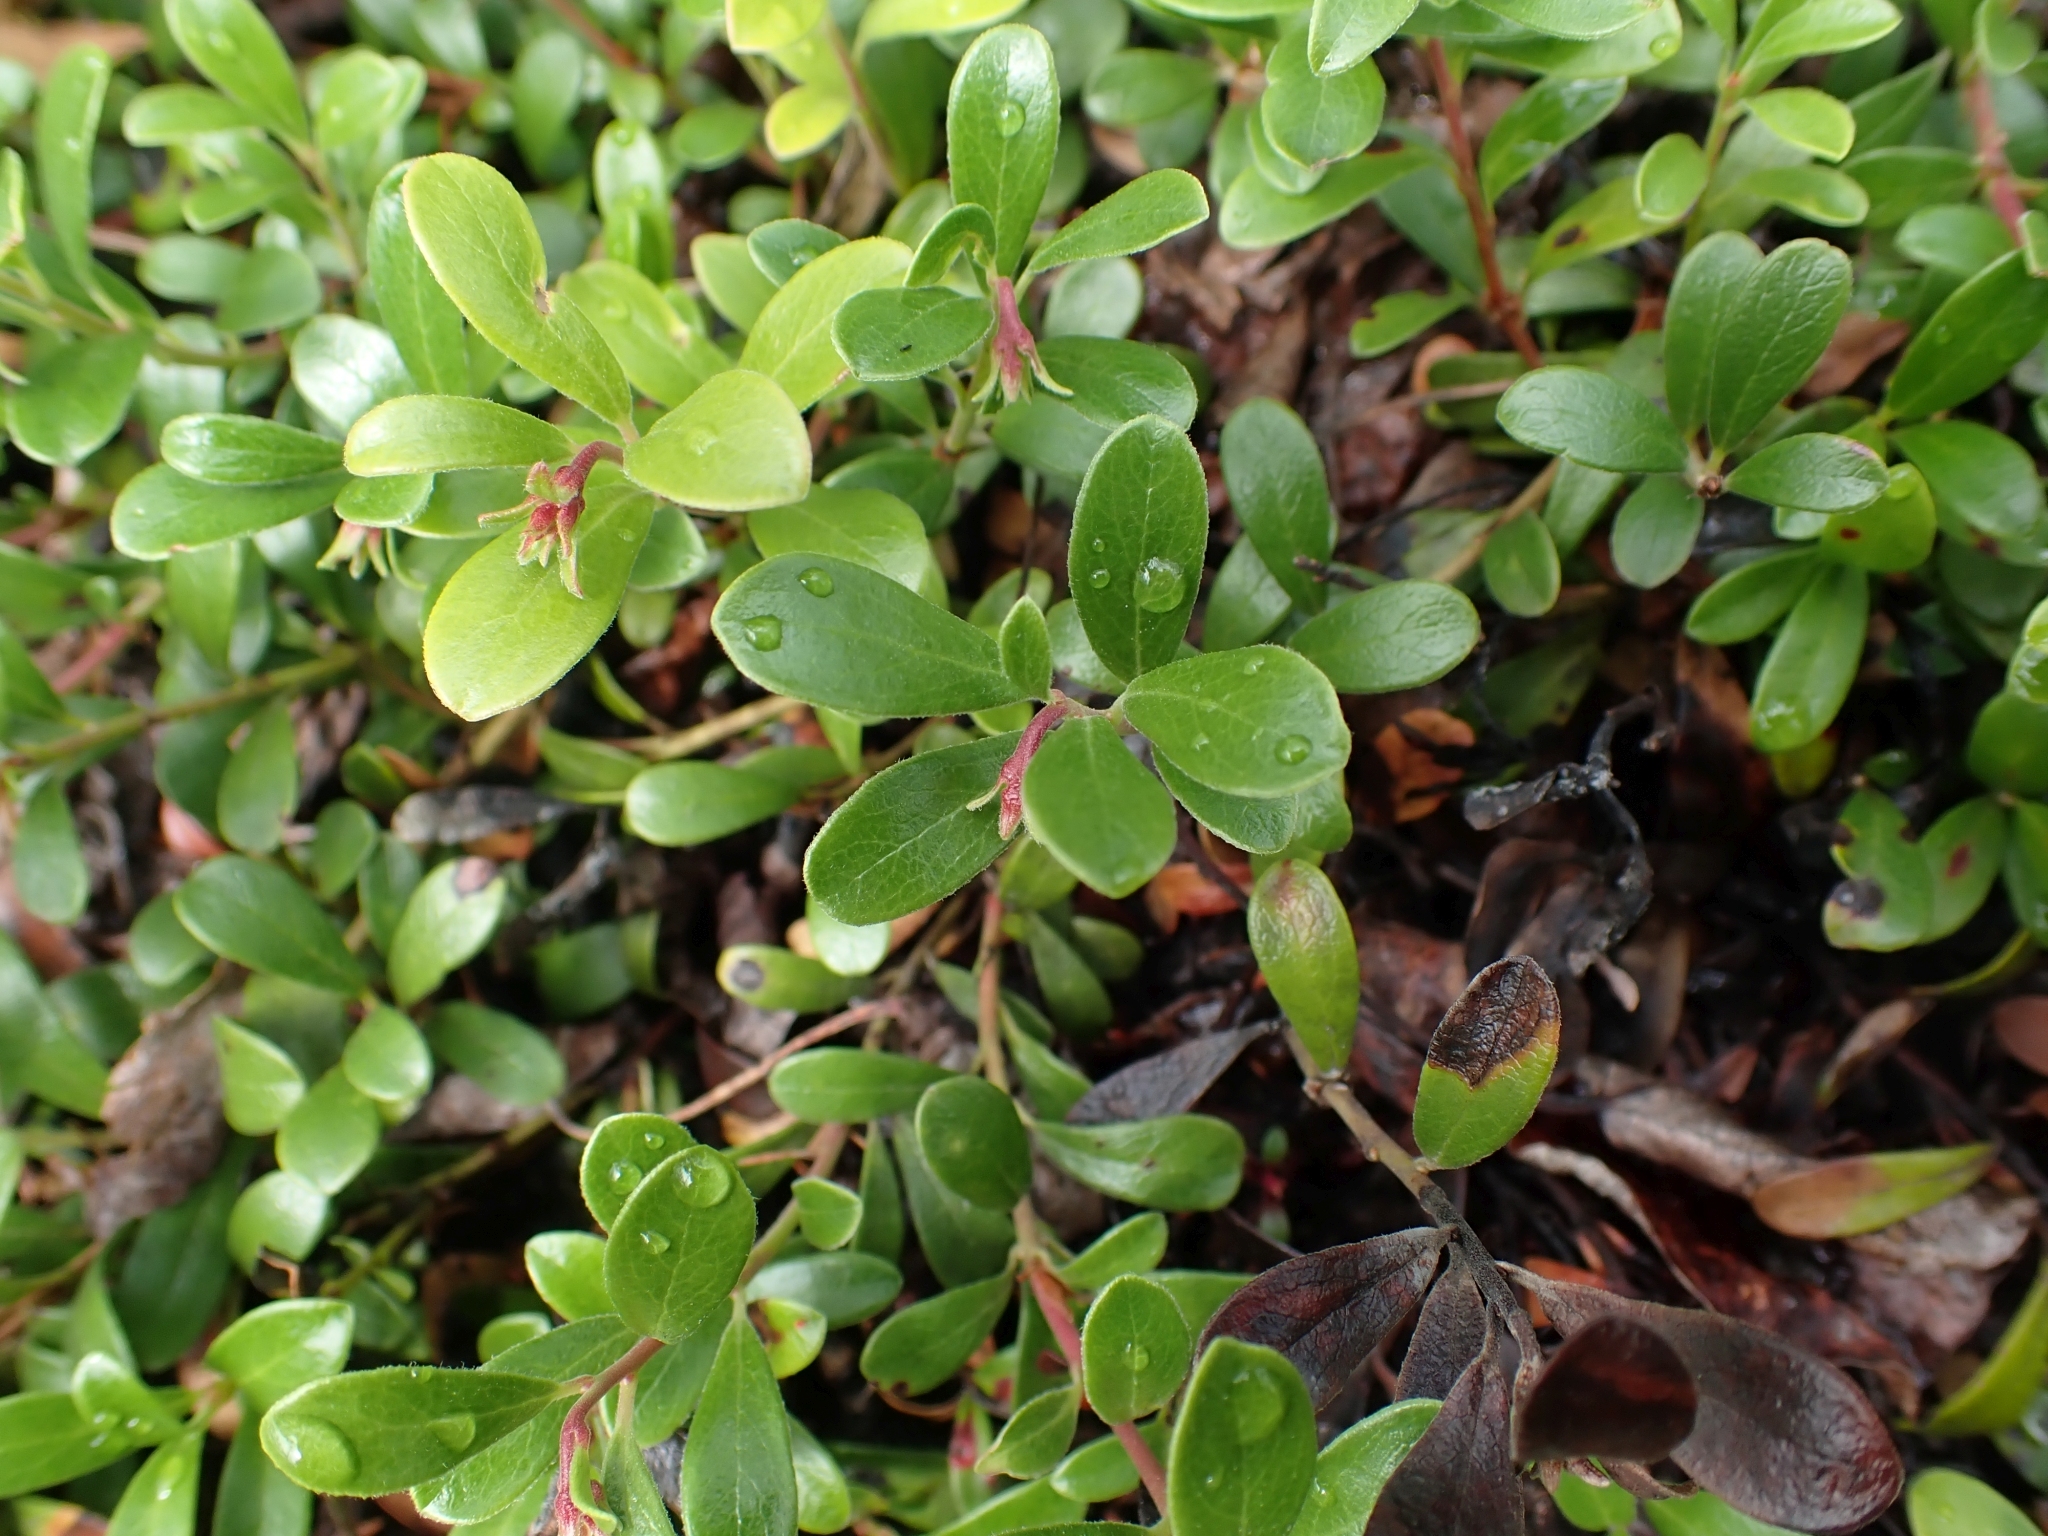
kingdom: Plantae
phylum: Tracheophyta
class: Magnoliopsida
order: Ericales
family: Ericaceae
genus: Arctostaphylos
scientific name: Arctostaphylos uva-ursi
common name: Bearberry
